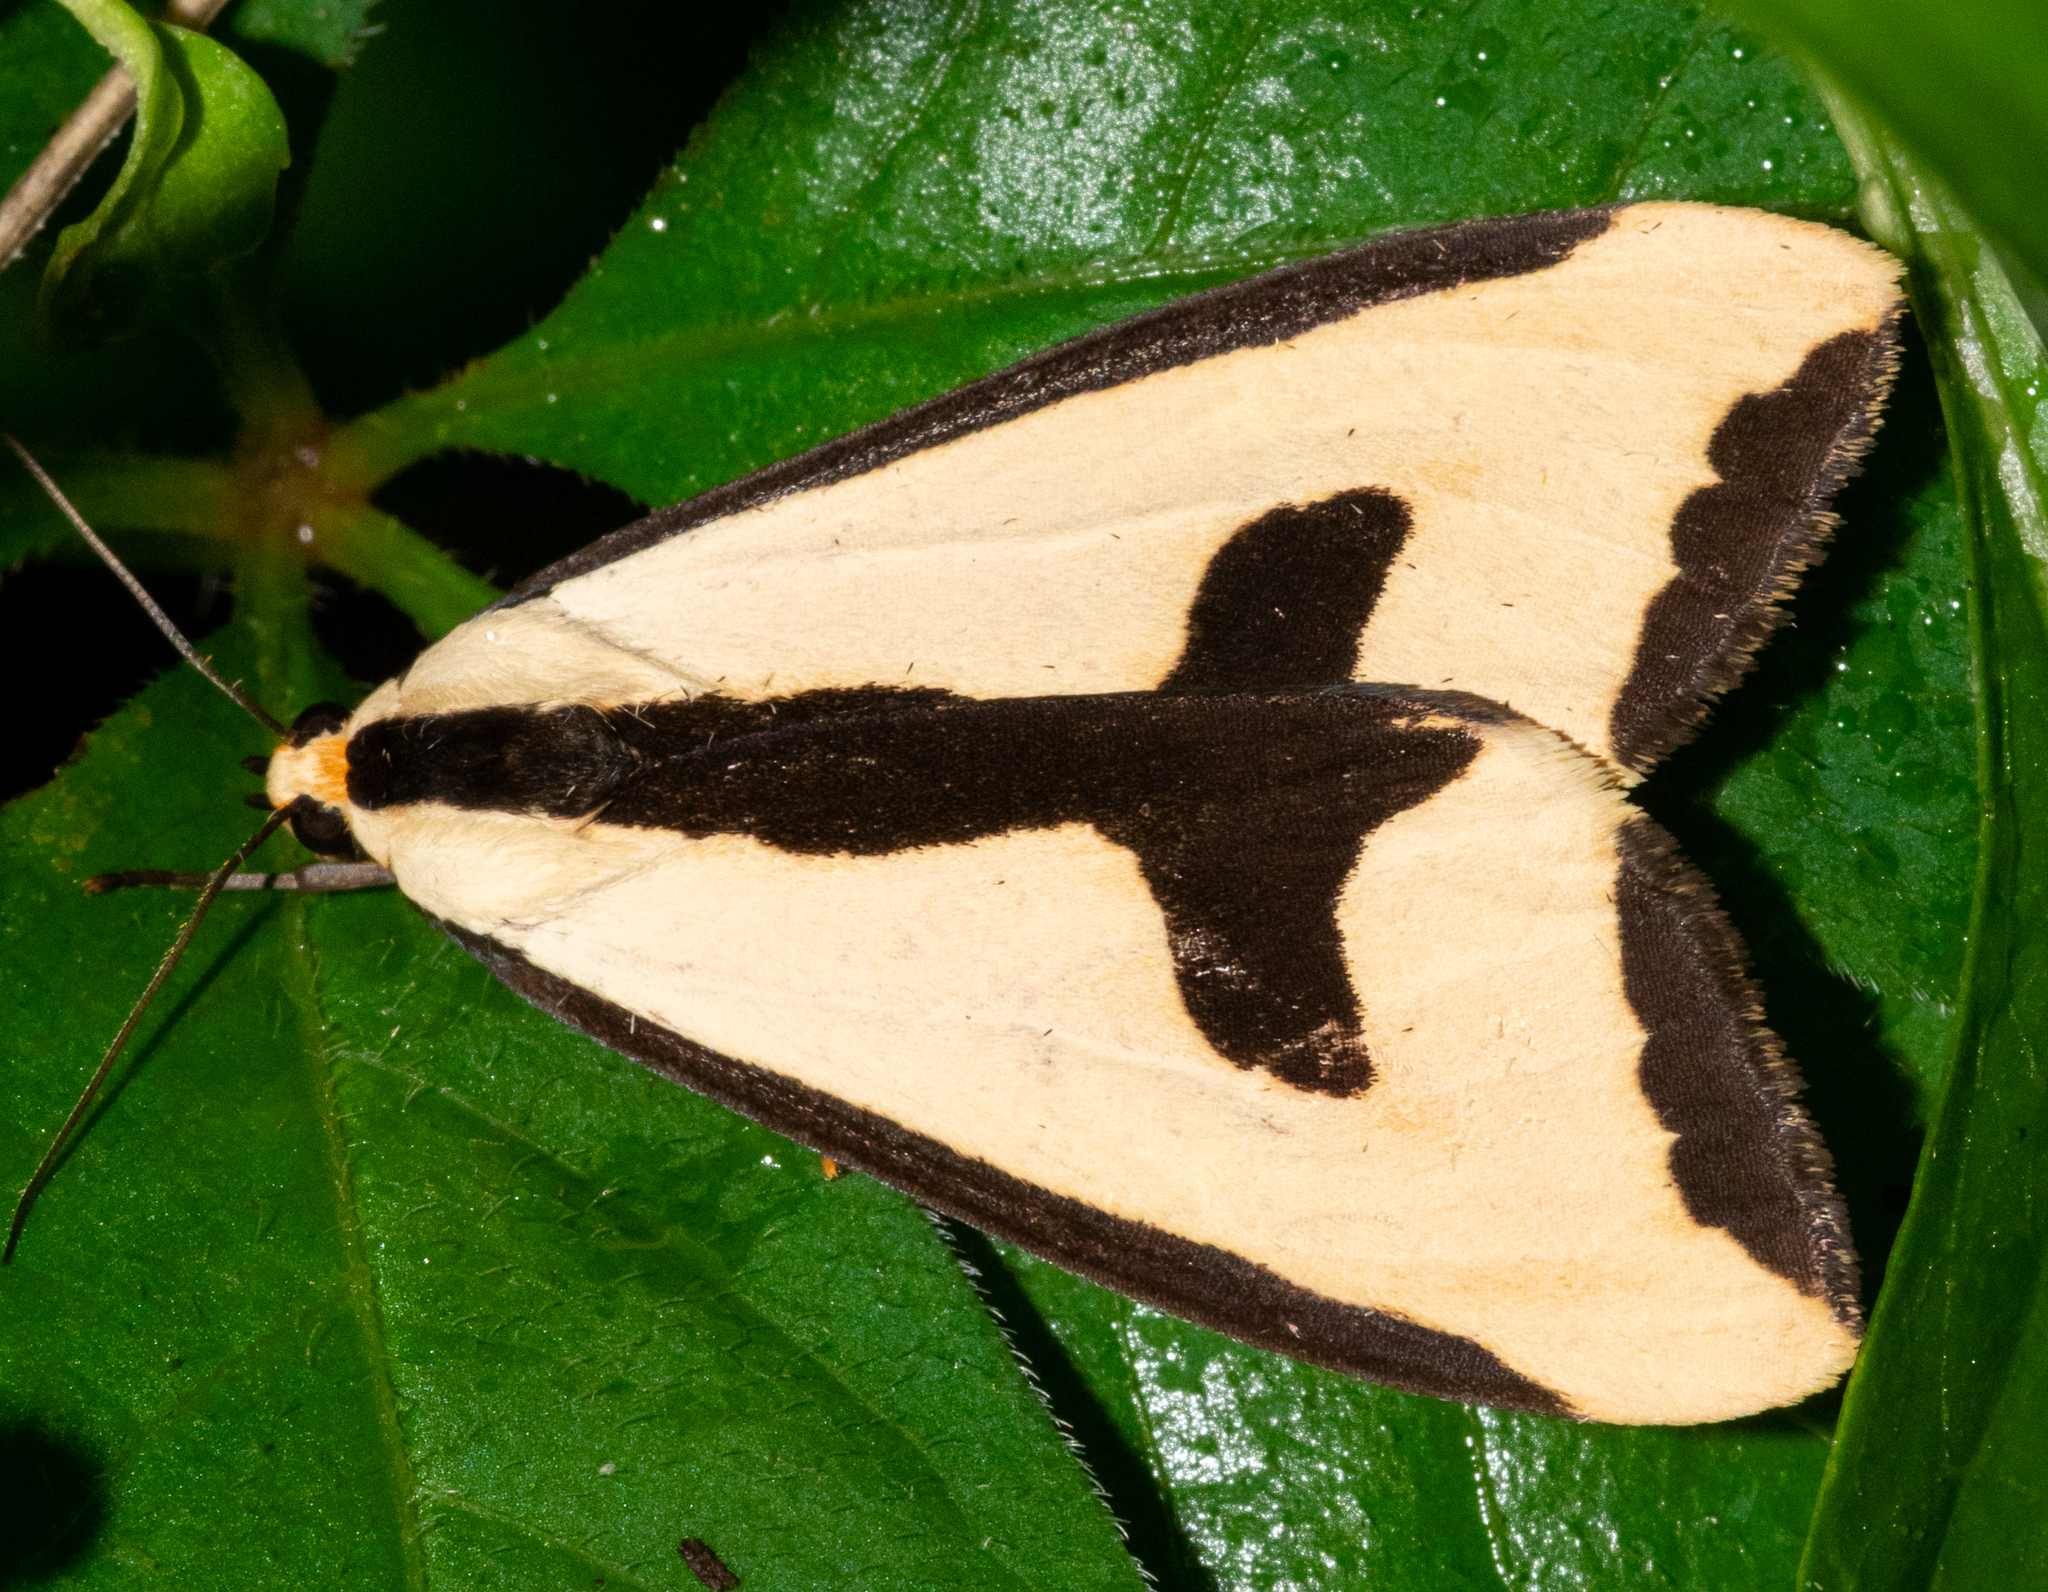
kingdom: Animalia
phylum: Arthropoda
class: Insecta
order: Lepidoptera
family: Erebidae
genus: Haploa
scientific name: Haploa clymene
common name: Clymene moth
